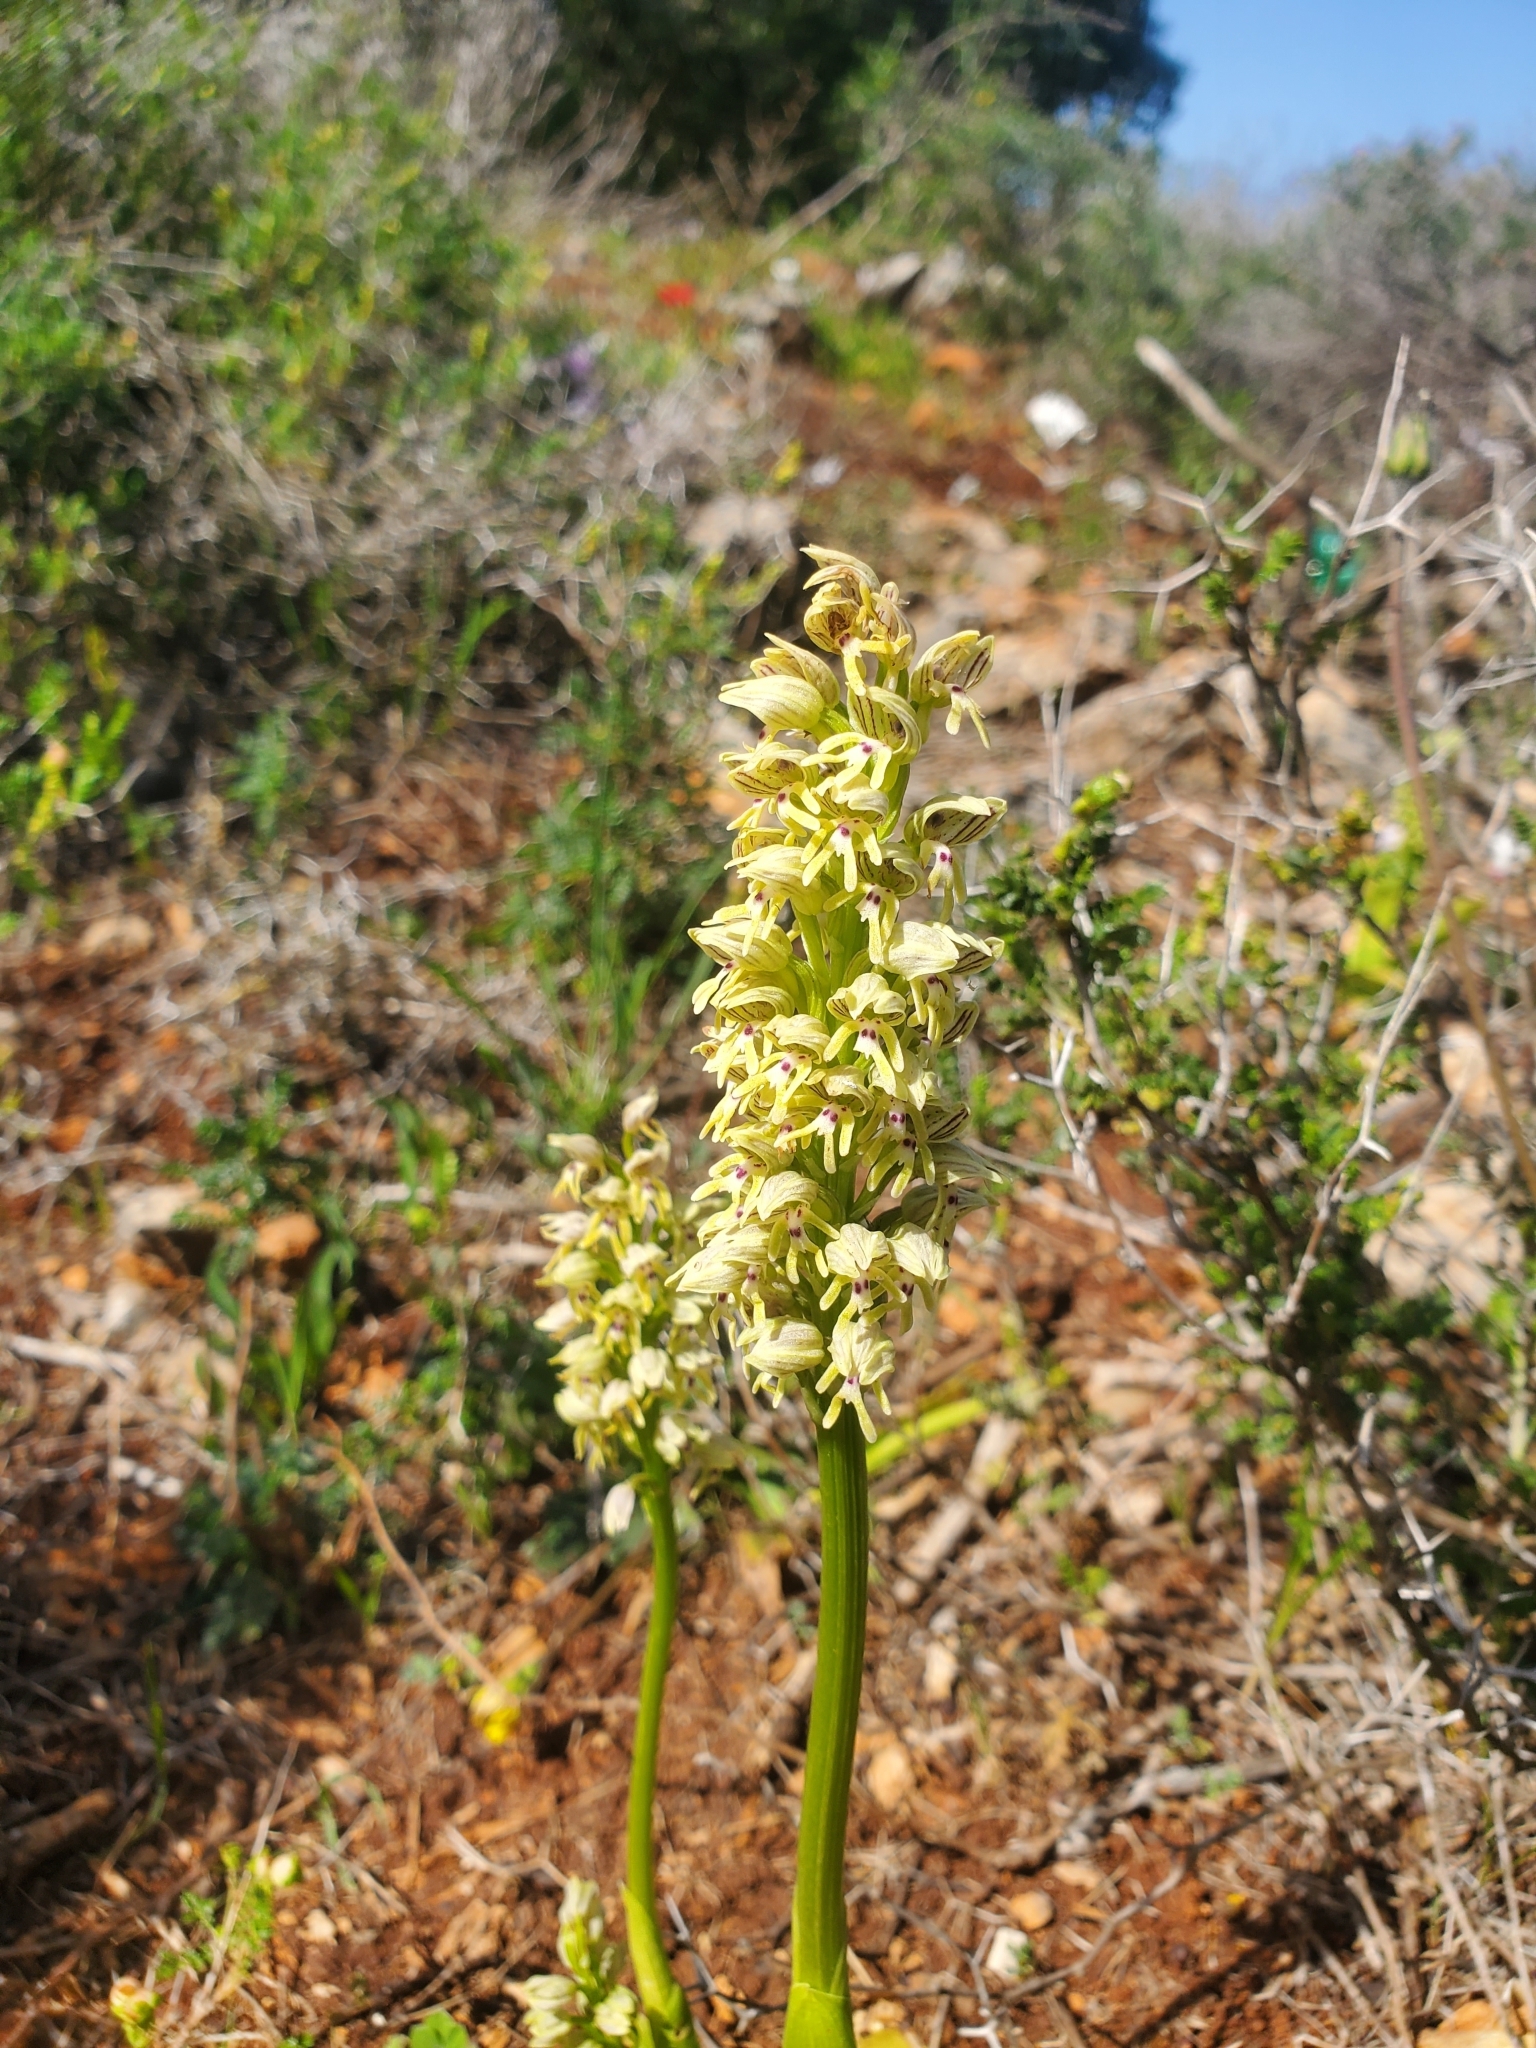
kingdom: Plantae
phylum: Tracheophyta
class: Liliopsida
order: Asparagales
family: Orchidaceae
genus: Orchis
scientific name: Orchis galilaea
